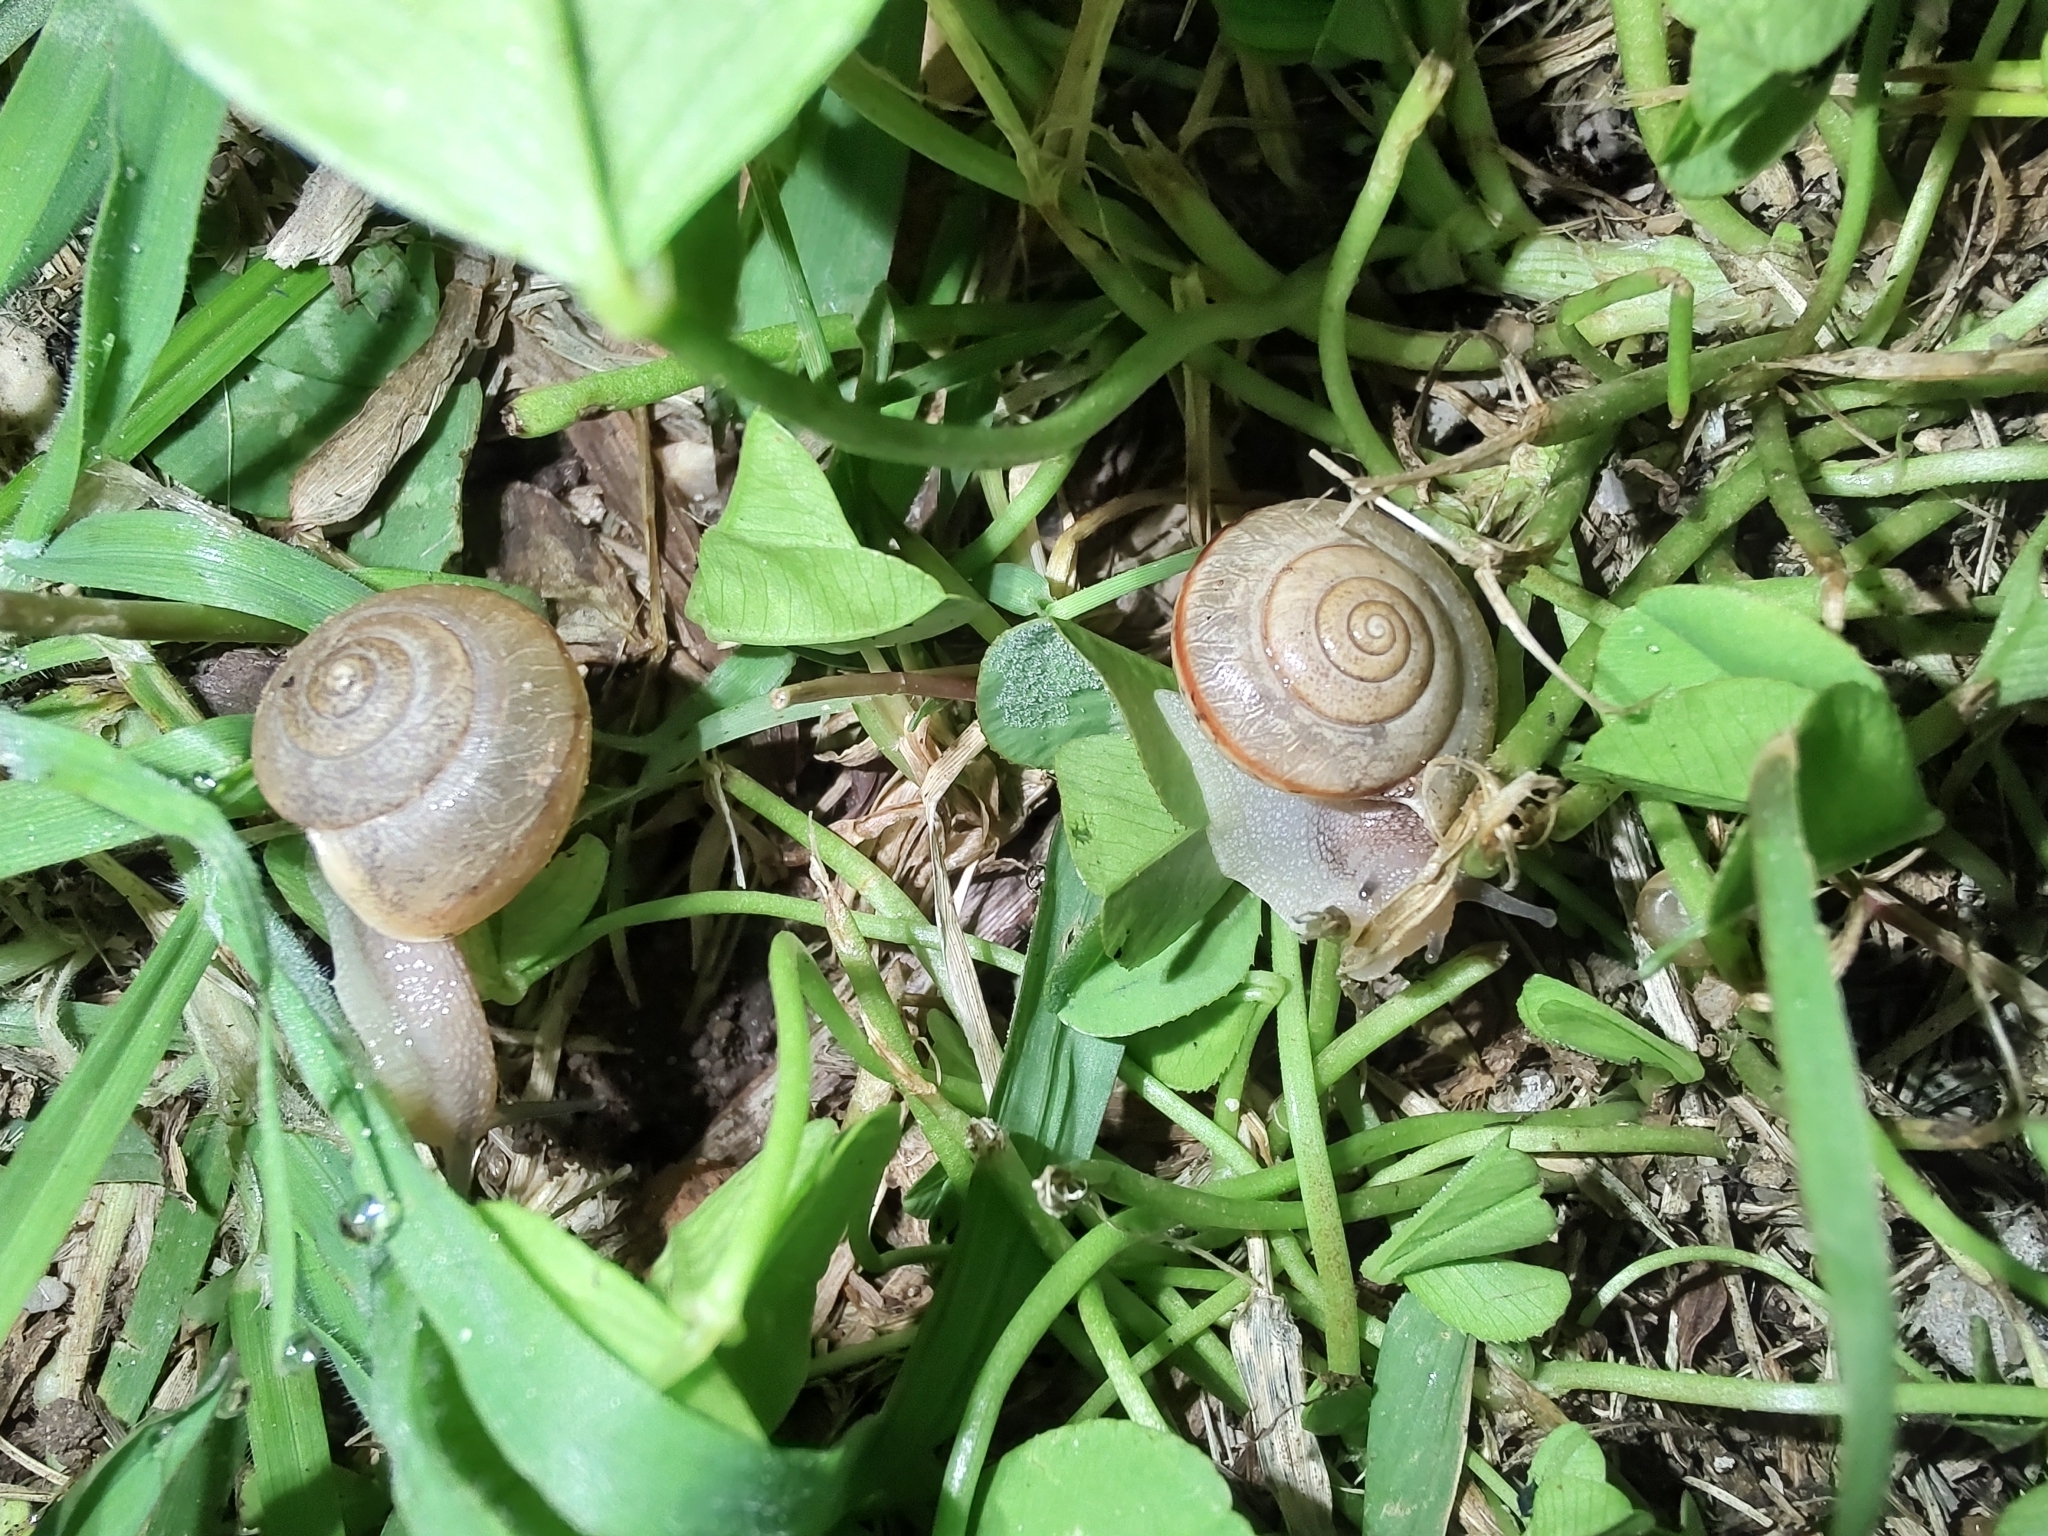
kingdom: Animalia
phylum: Mollusca
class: Gastropoda
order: Stylommatophora
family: Camaenidae
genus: Bradybaena
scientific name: Bradybaena similaris
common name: Asian trampsnail
